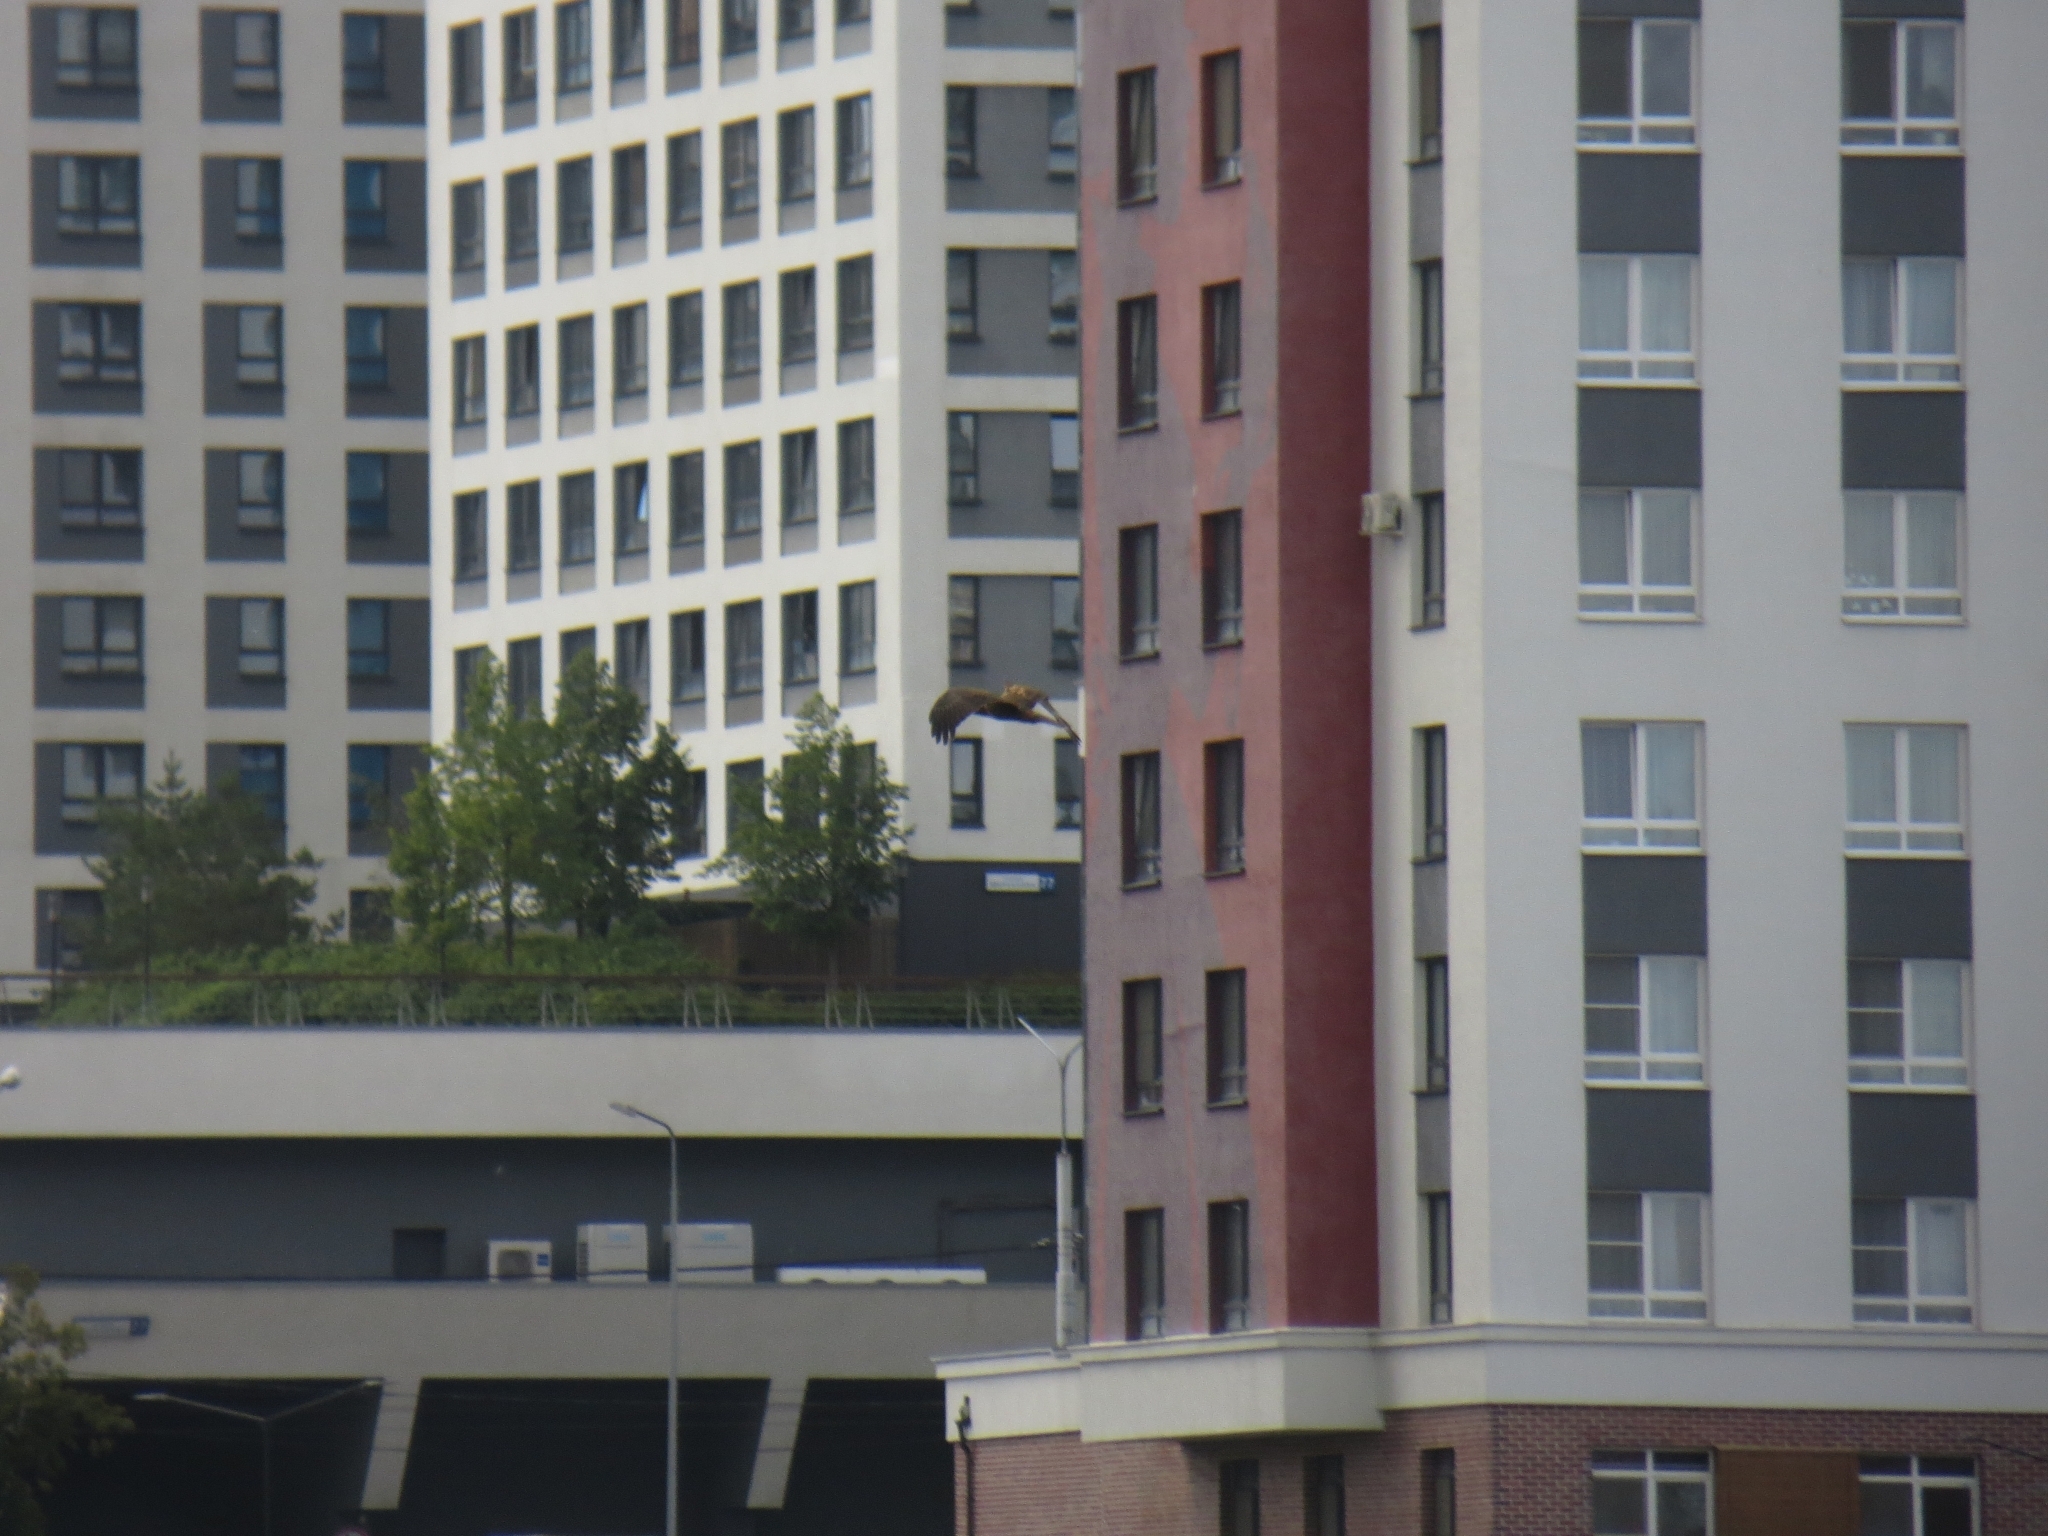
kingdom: Animalia
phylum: Chordata
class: Aves
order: Accipitriformes
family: Accipitridae
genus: Circus
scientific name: Circus aeruginosus
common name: Western marsh harrier
